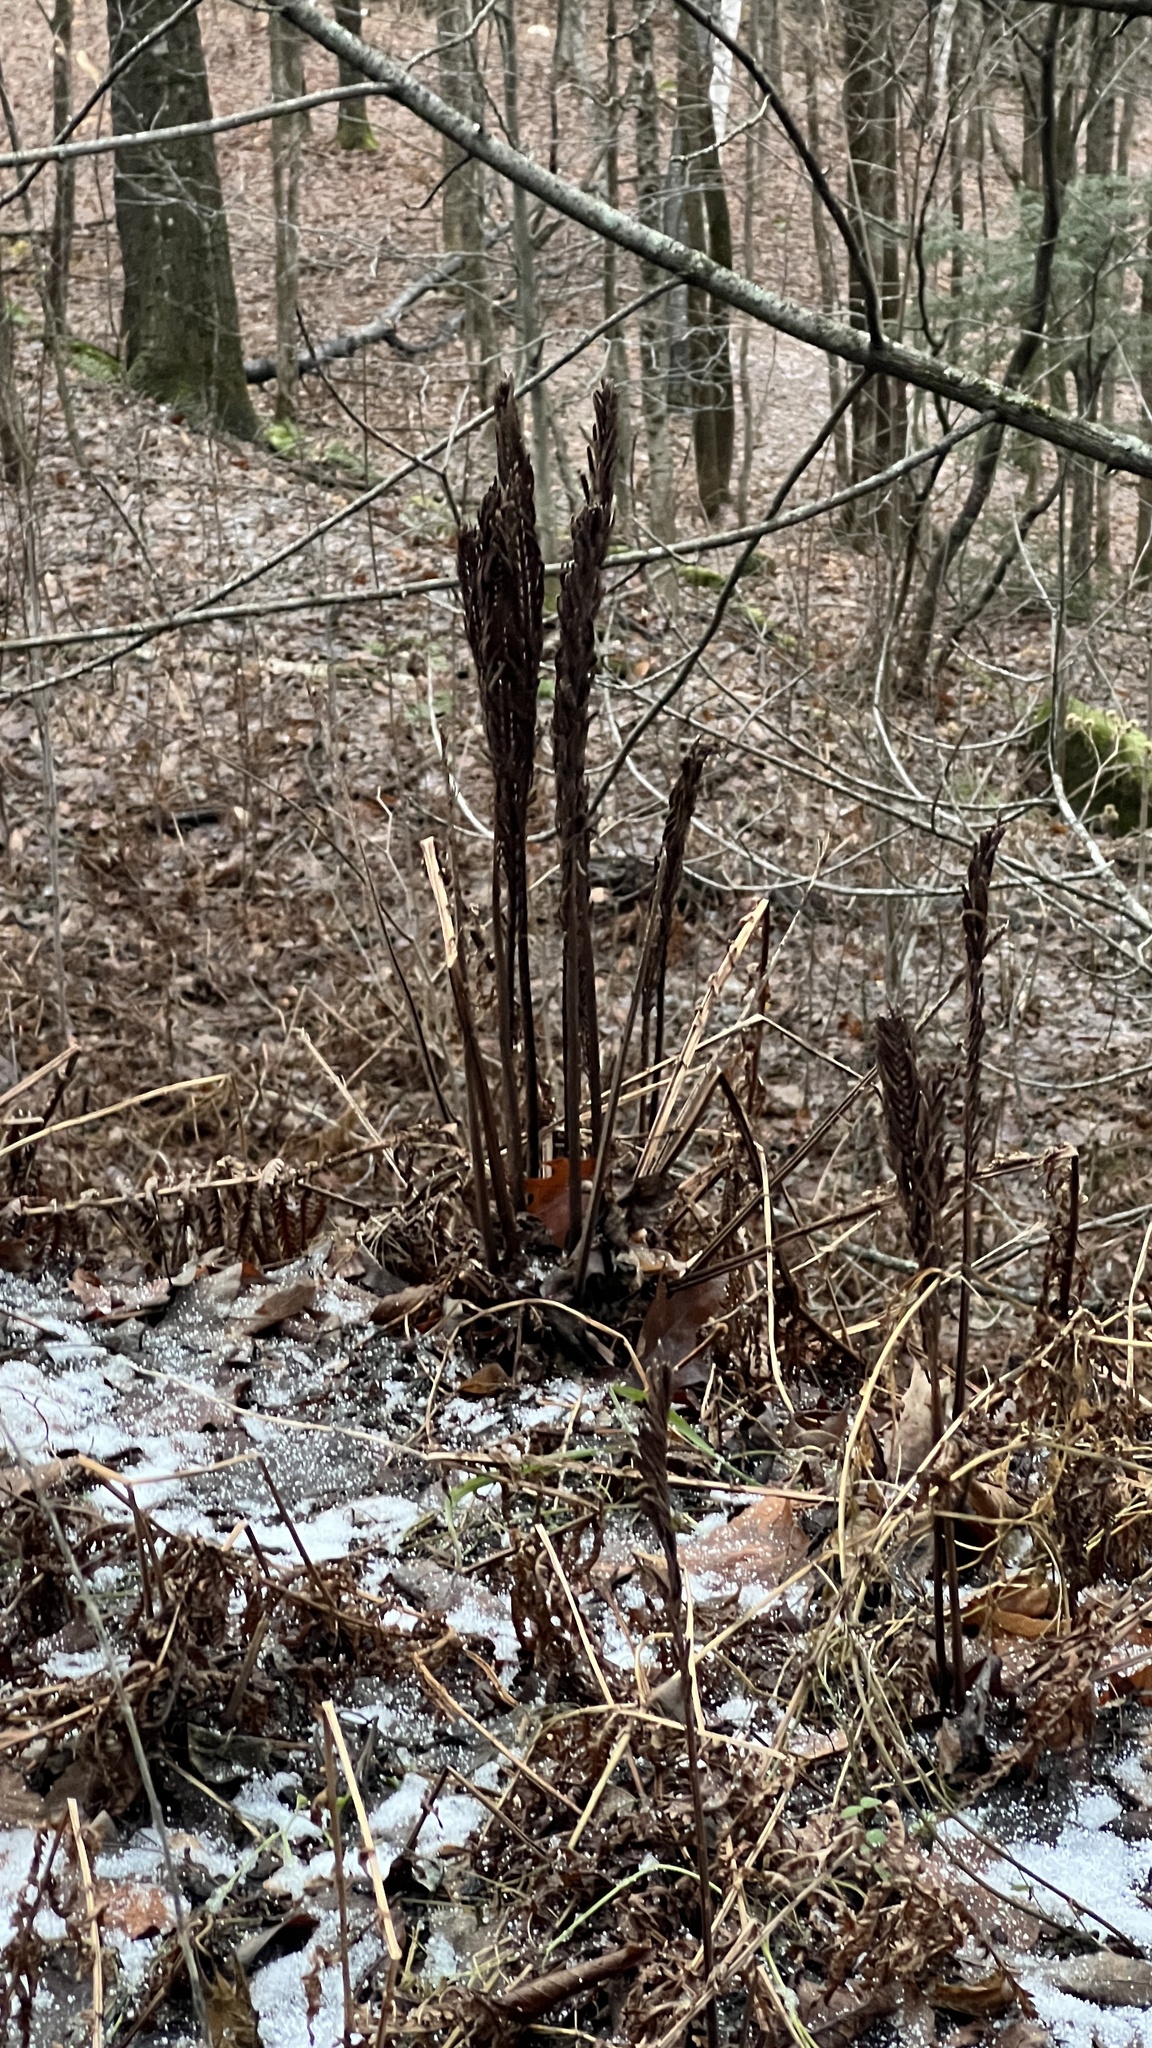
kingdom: Plantae
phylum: Tracheophyta
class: Polypodiopsida
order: Polypodiales
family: Onocleaceae
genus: Matteuccia
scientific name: Matteuccia struthiopteris
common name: Ostrich fern
